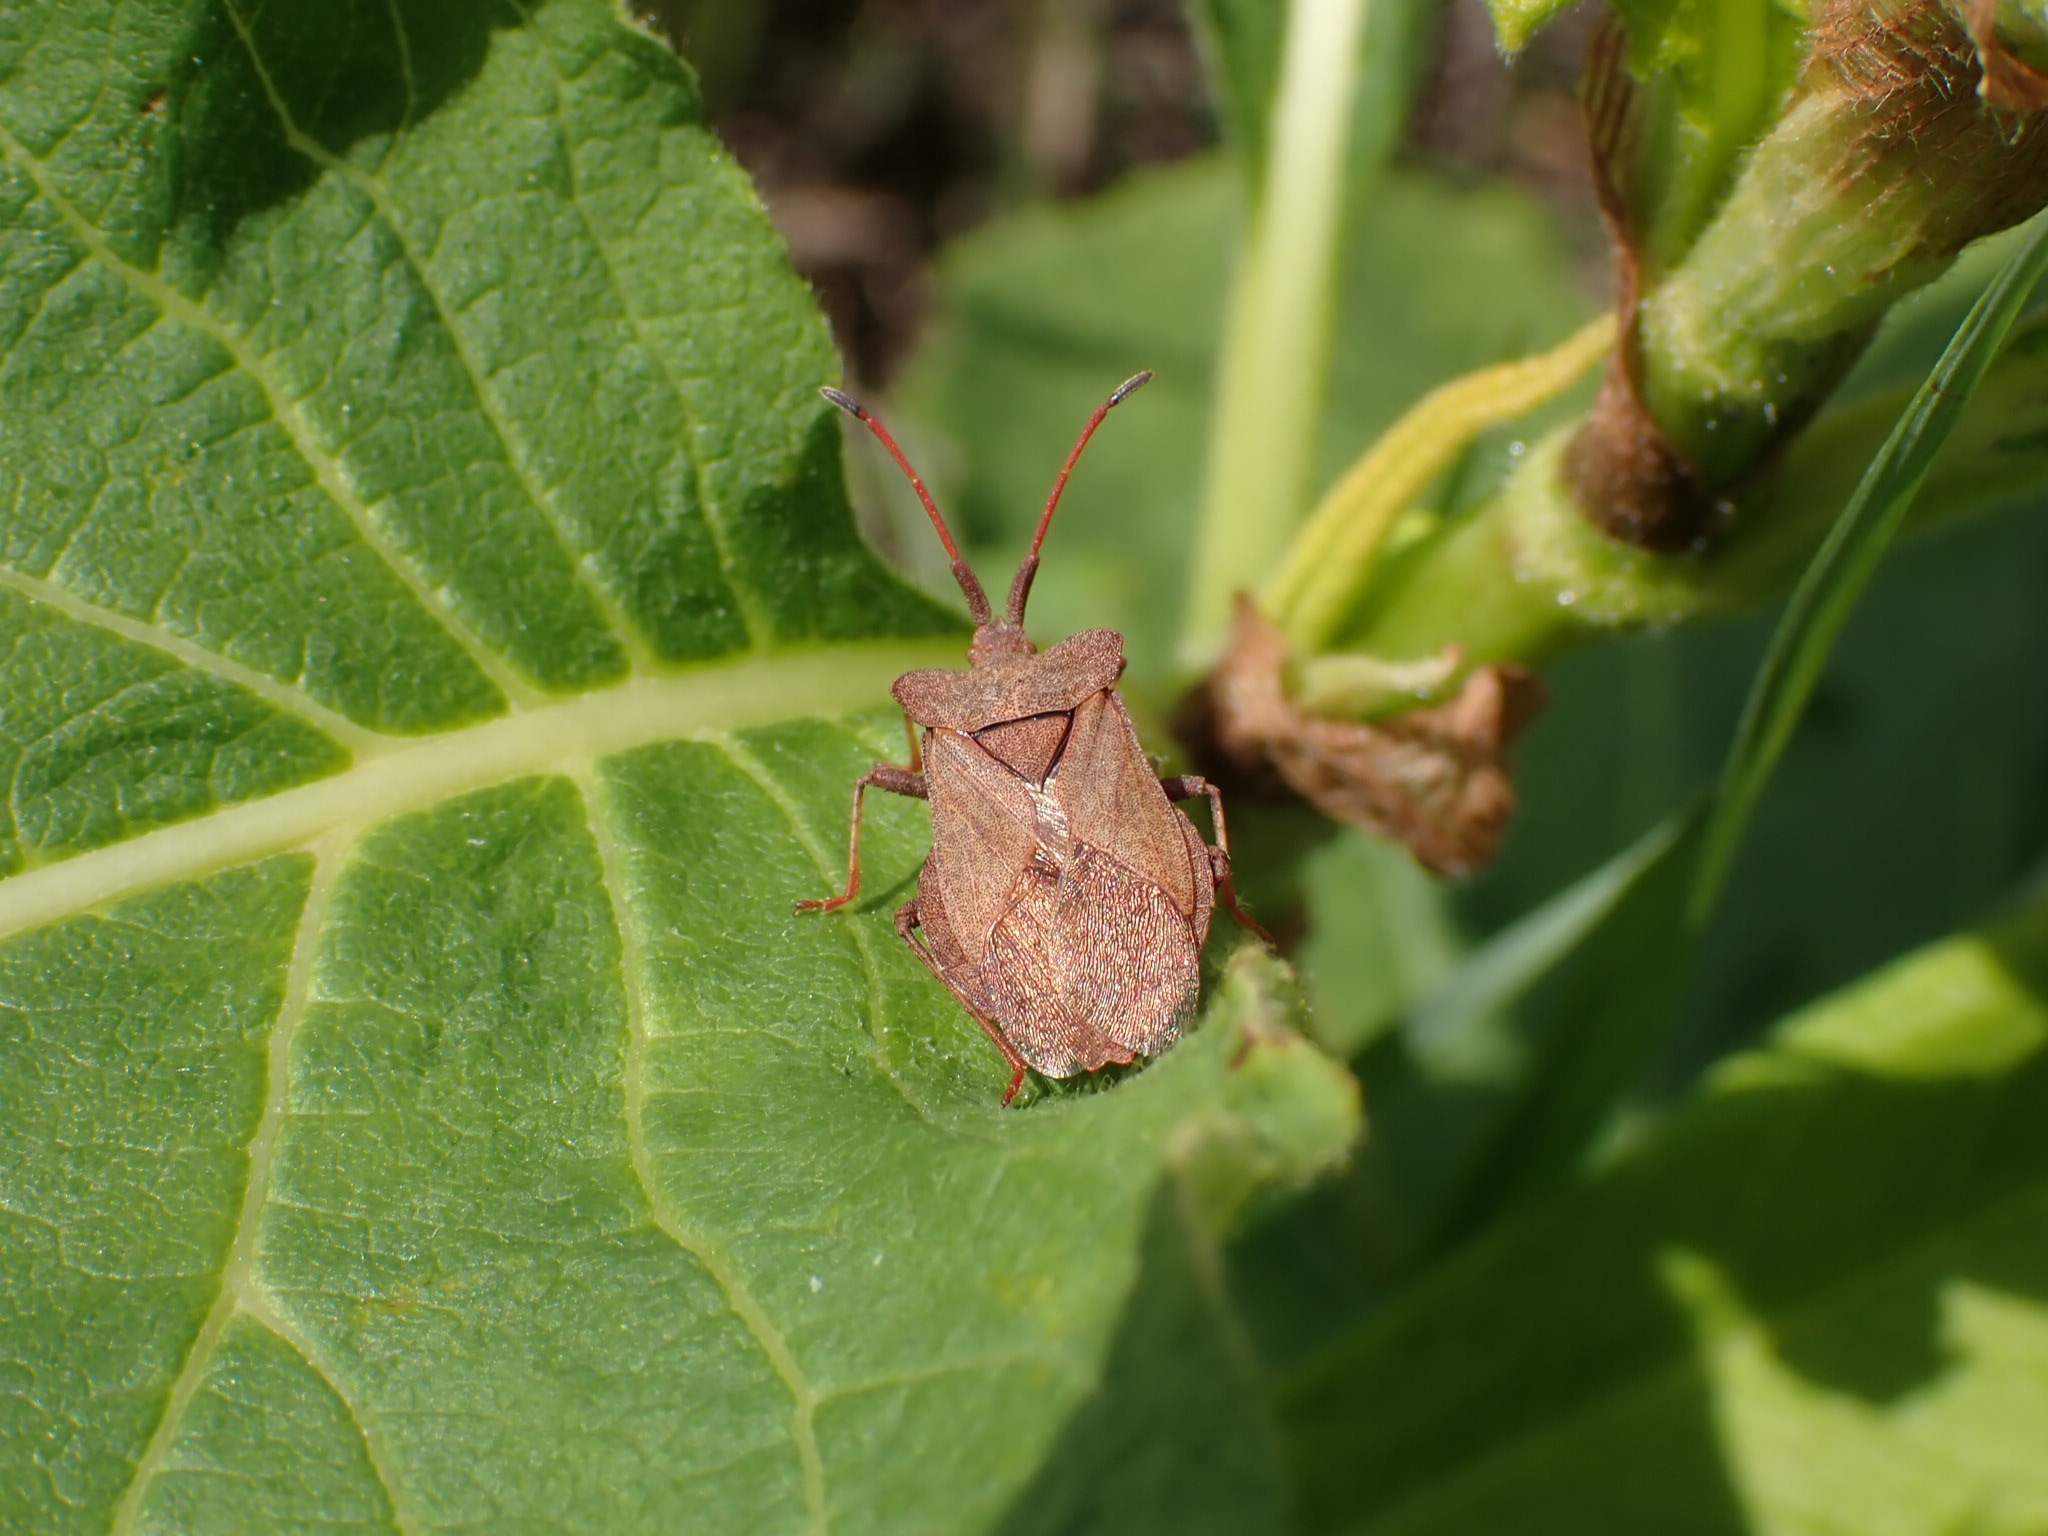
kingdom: Animalia
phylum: Arthropoda
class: Insecta
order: Hemiptera
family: Coreidae
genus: Coreus
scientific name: Coreus marginatus
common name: Dock bug
